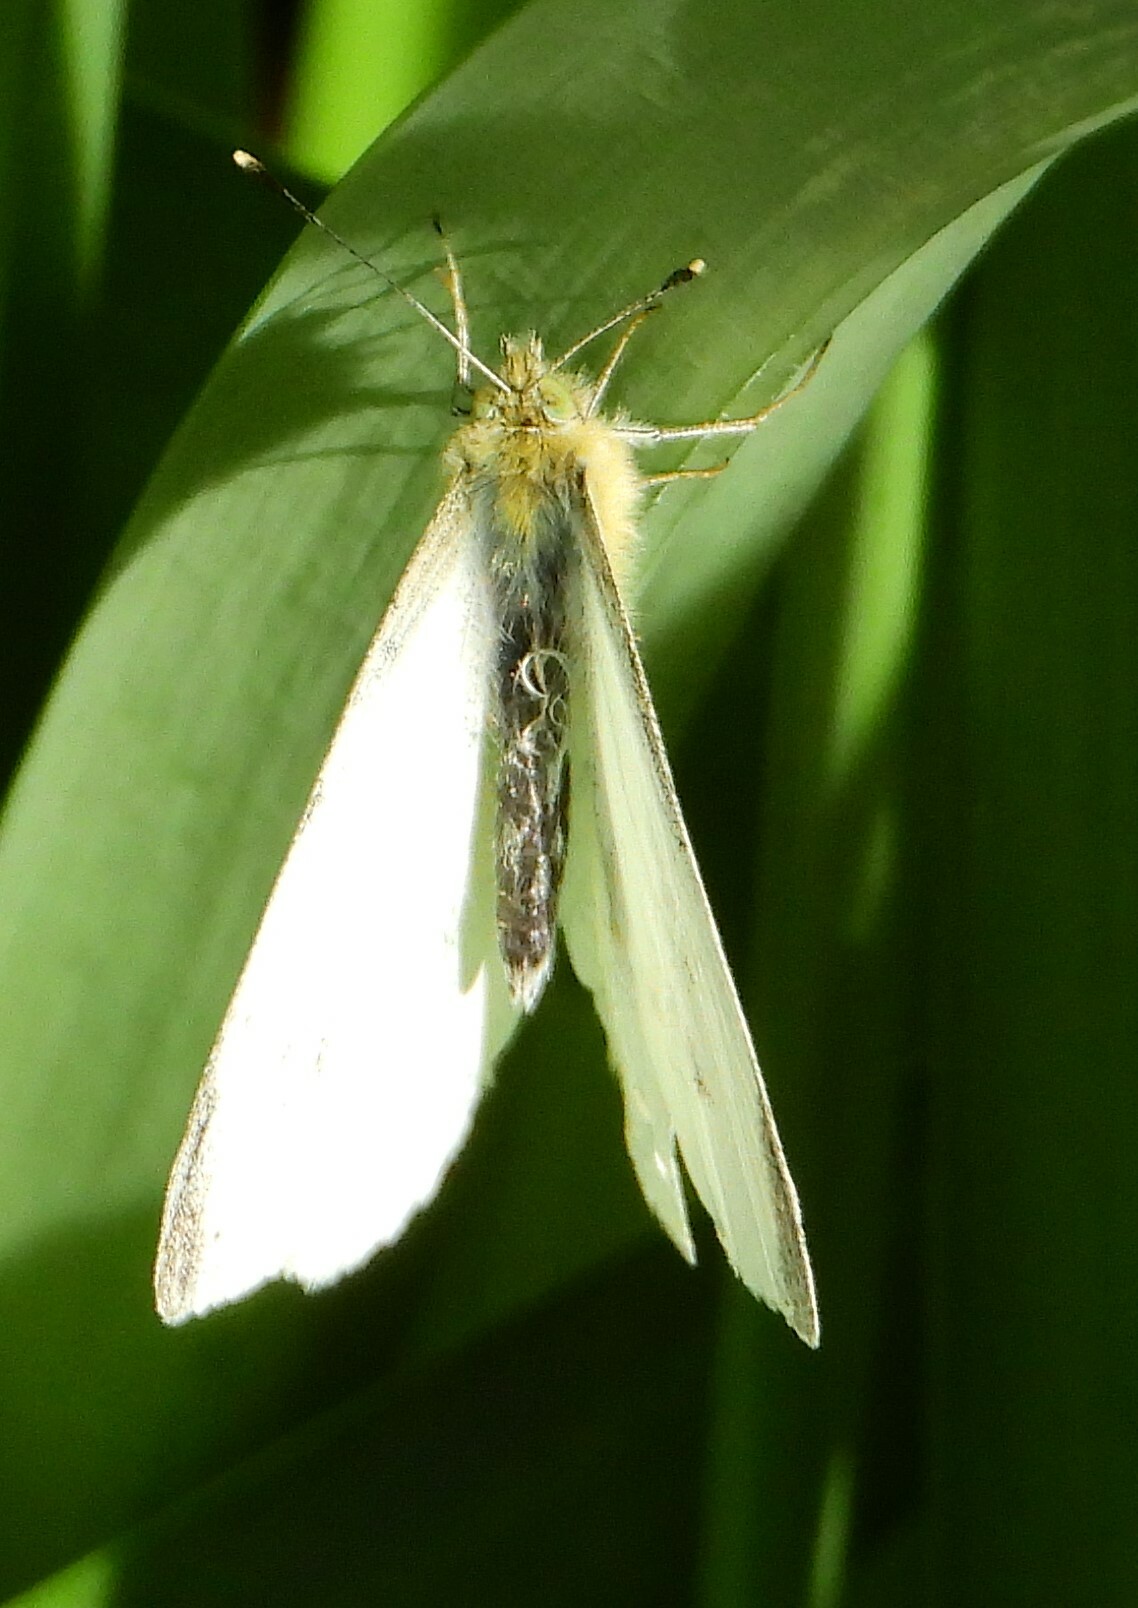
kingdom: Animalia
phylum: Arthropoda
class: Insecta
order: Lepidoptera
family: Pieridae
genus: Pieris
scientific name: Pieris rapae
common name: Small white
